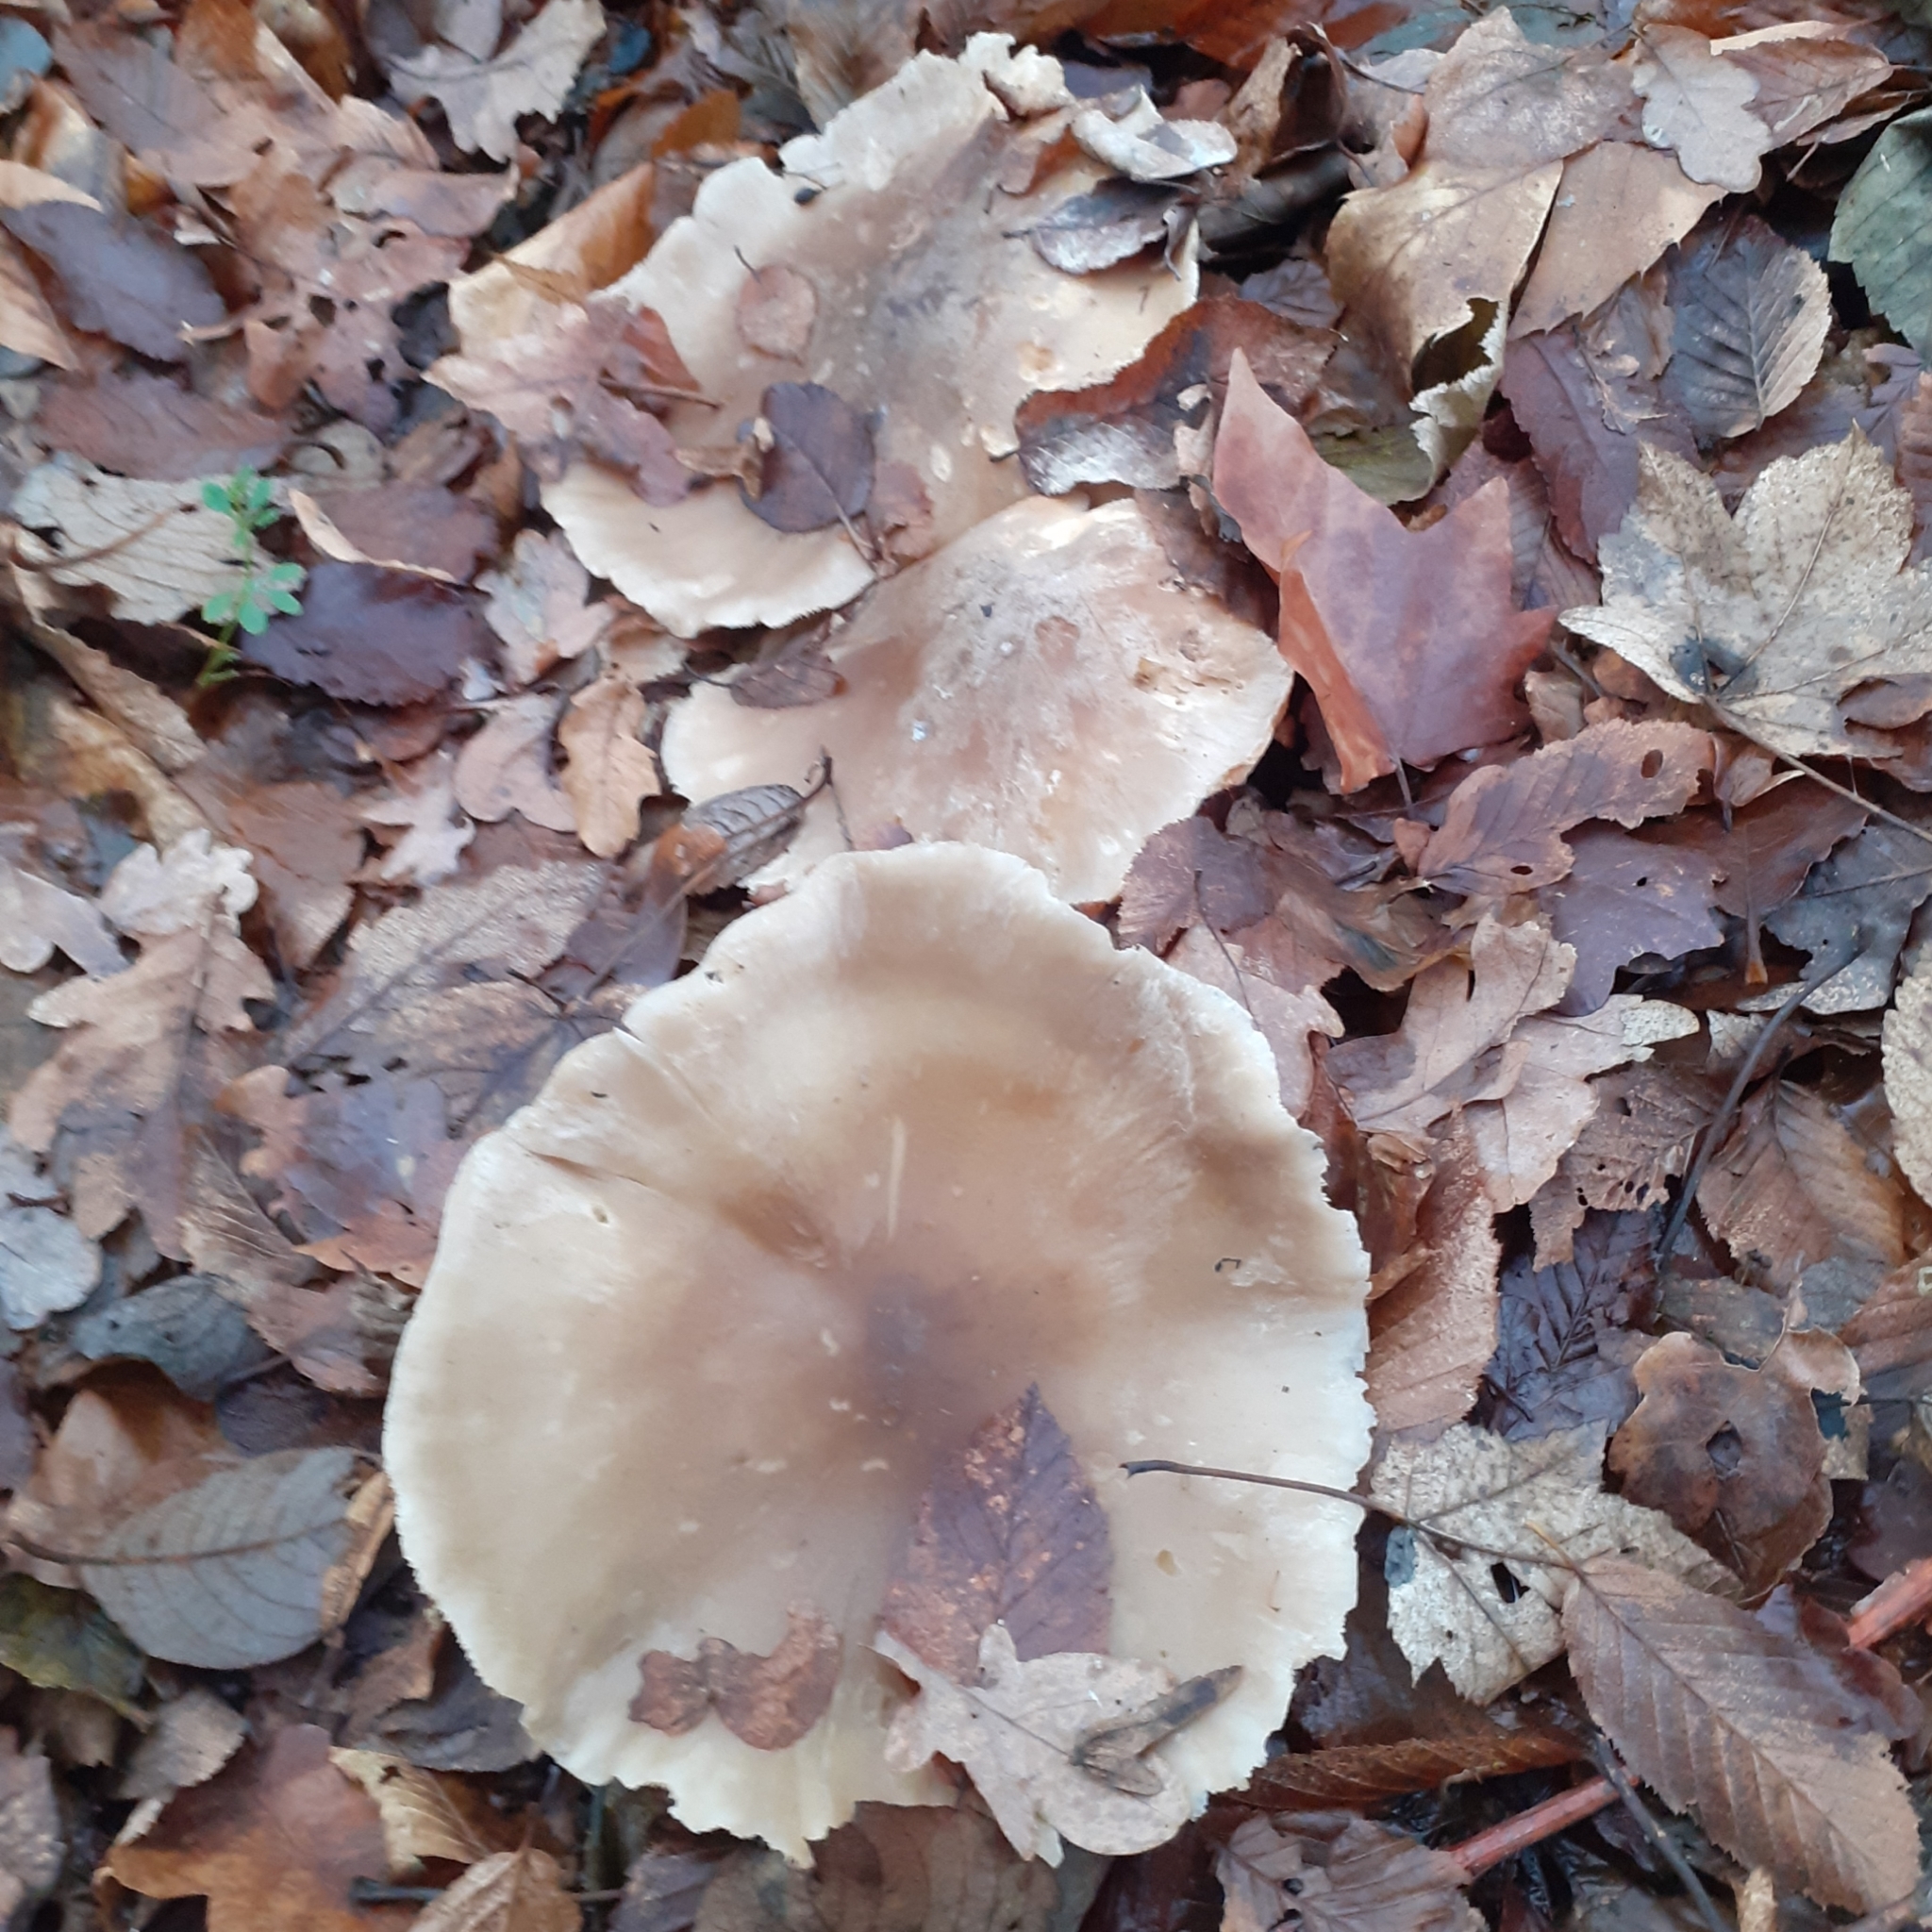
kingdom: Fungi
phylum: Basidiomycota
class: Agaricomycetes
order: Agaricales
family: Tricholomataceae
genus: Clitocybe
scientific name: Clitocybe nebularis
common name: Clouded agaric
